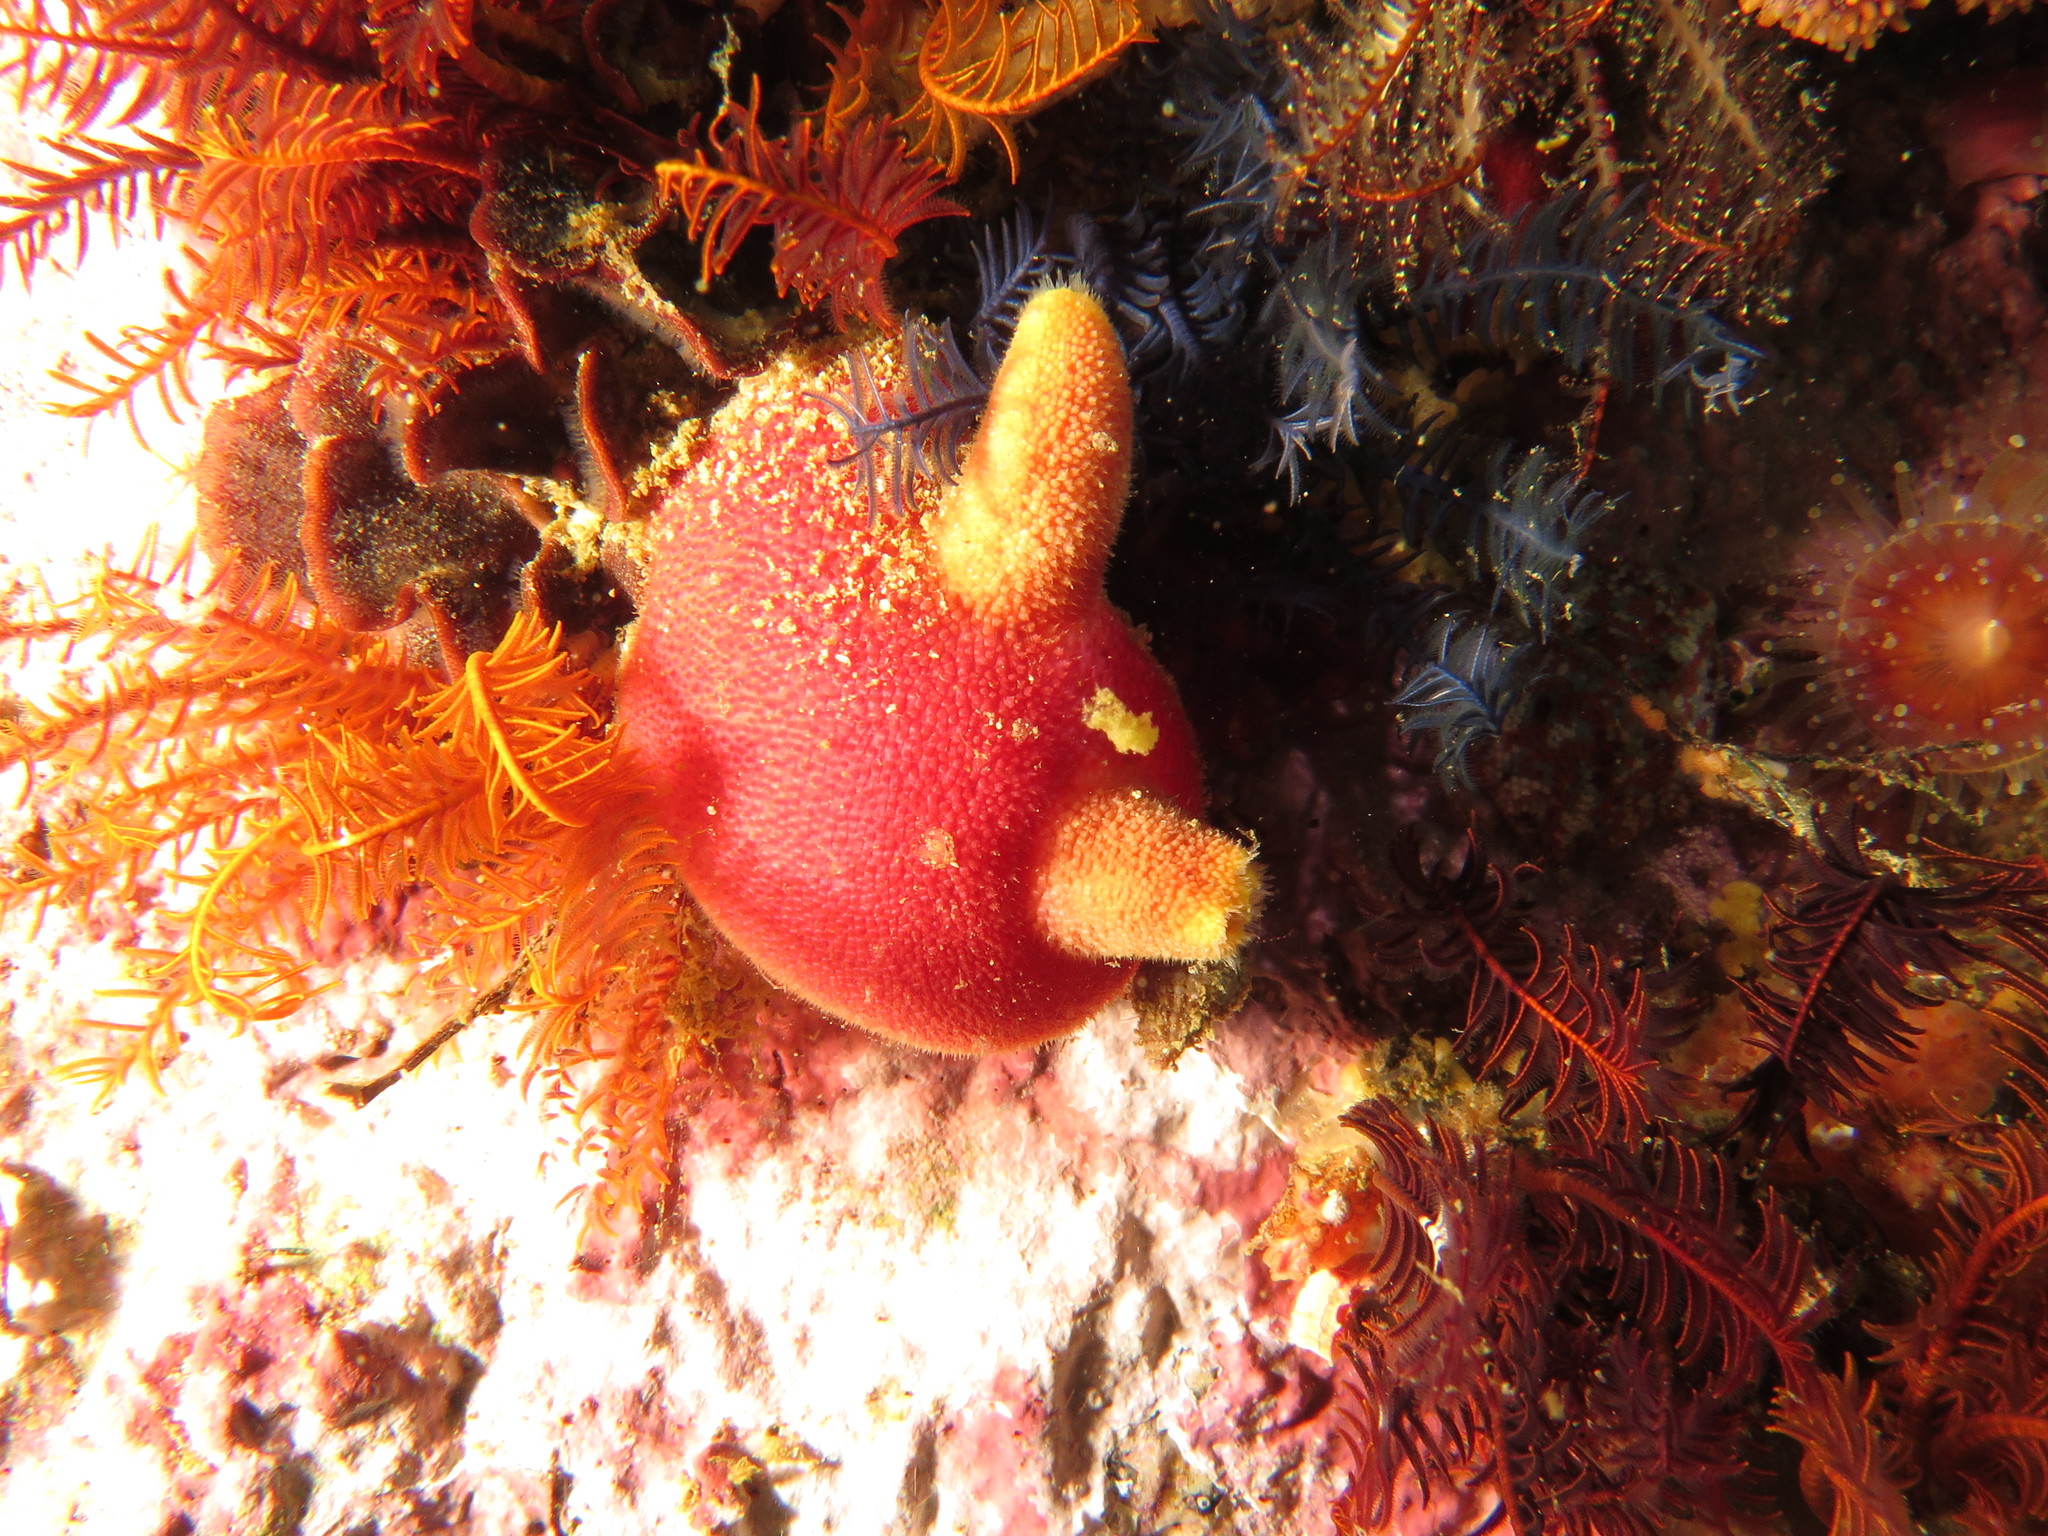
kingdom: Animalia
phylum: Chordata
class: Ascidiacea
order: Phlebobranchia
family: Ascidiidae
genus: Ascidia
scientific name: Ascidia incrassata
